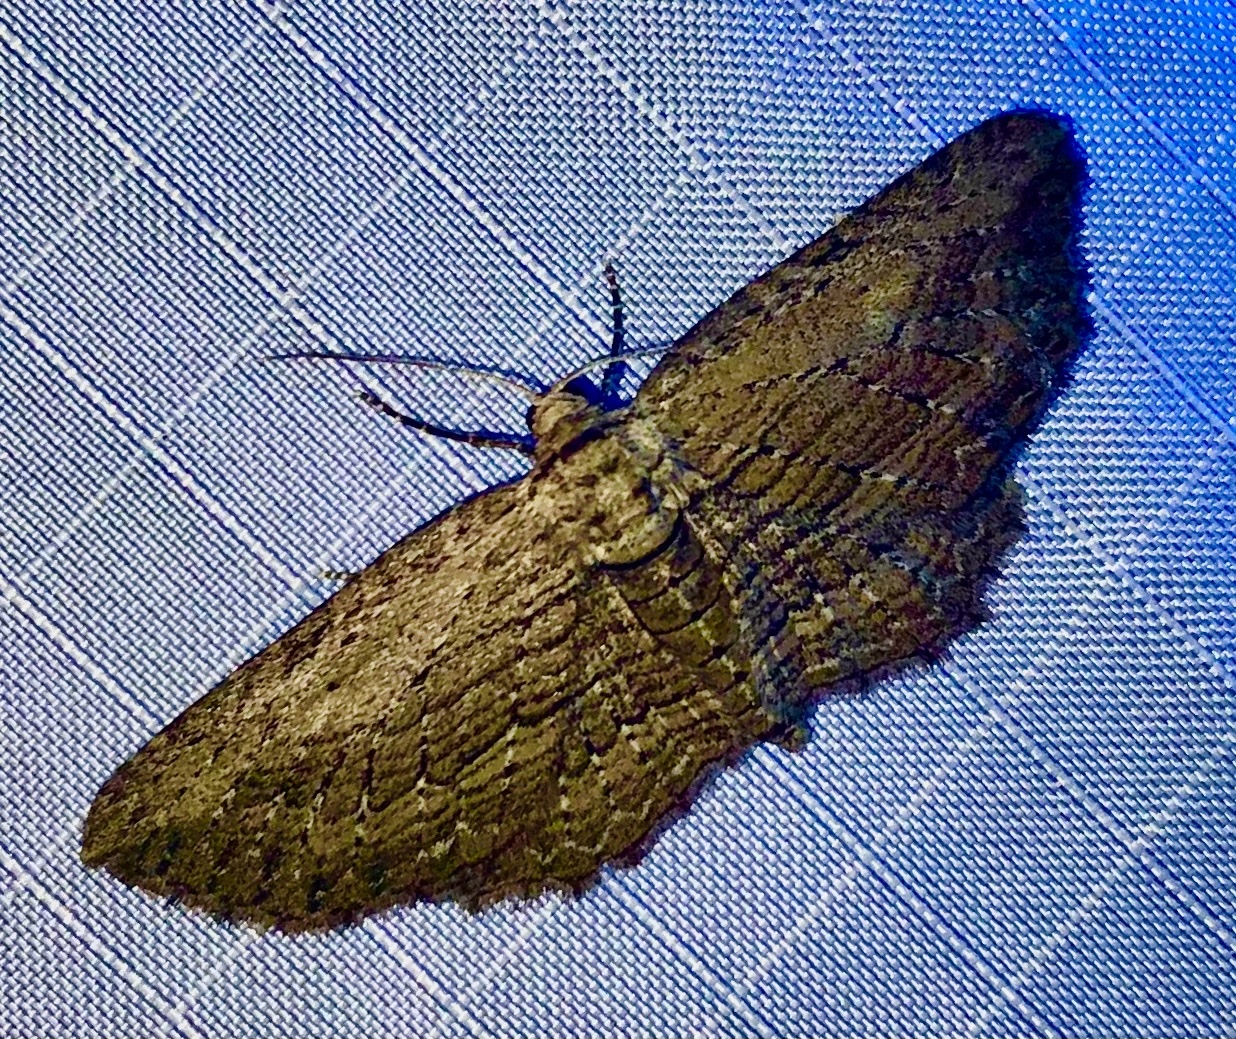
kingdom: Animalia
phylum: Arthropoda
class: Insecta
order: Lepidoptera
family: Geometridae
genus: Horisme
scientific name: Horisme intestinata
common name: Brown bark carpet
